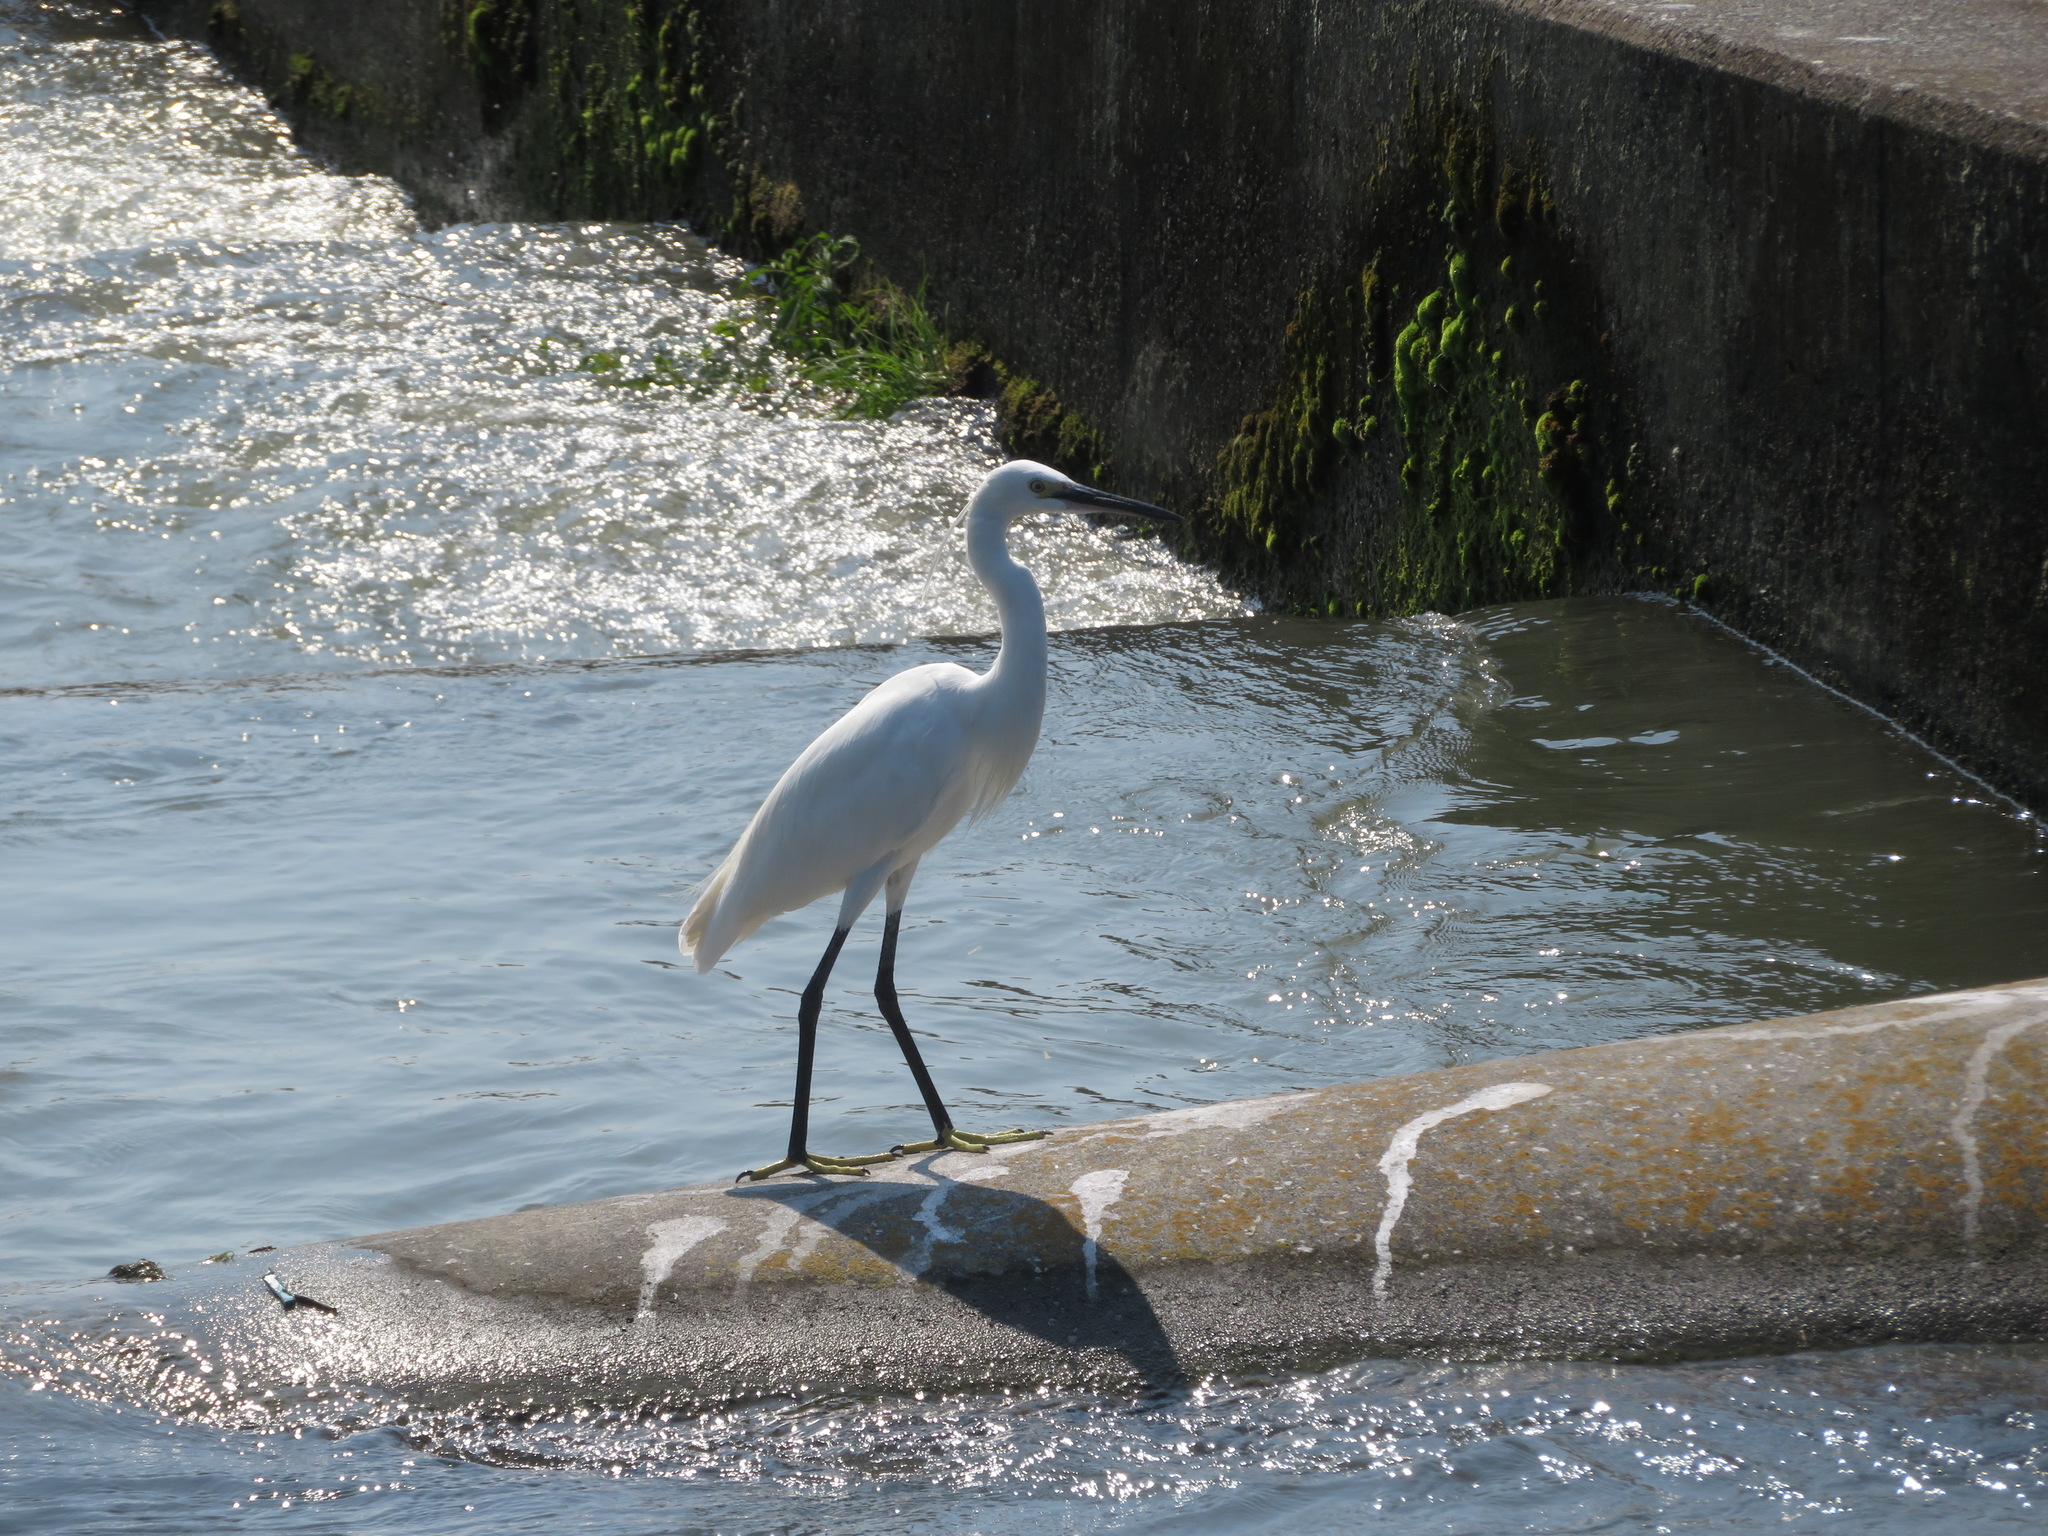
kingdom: Animalia
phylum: Chordata
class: Aves
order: Pelecaniformes
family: Ardeidae
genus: Egretta
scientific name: Egretta garzetta
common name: Little egret
